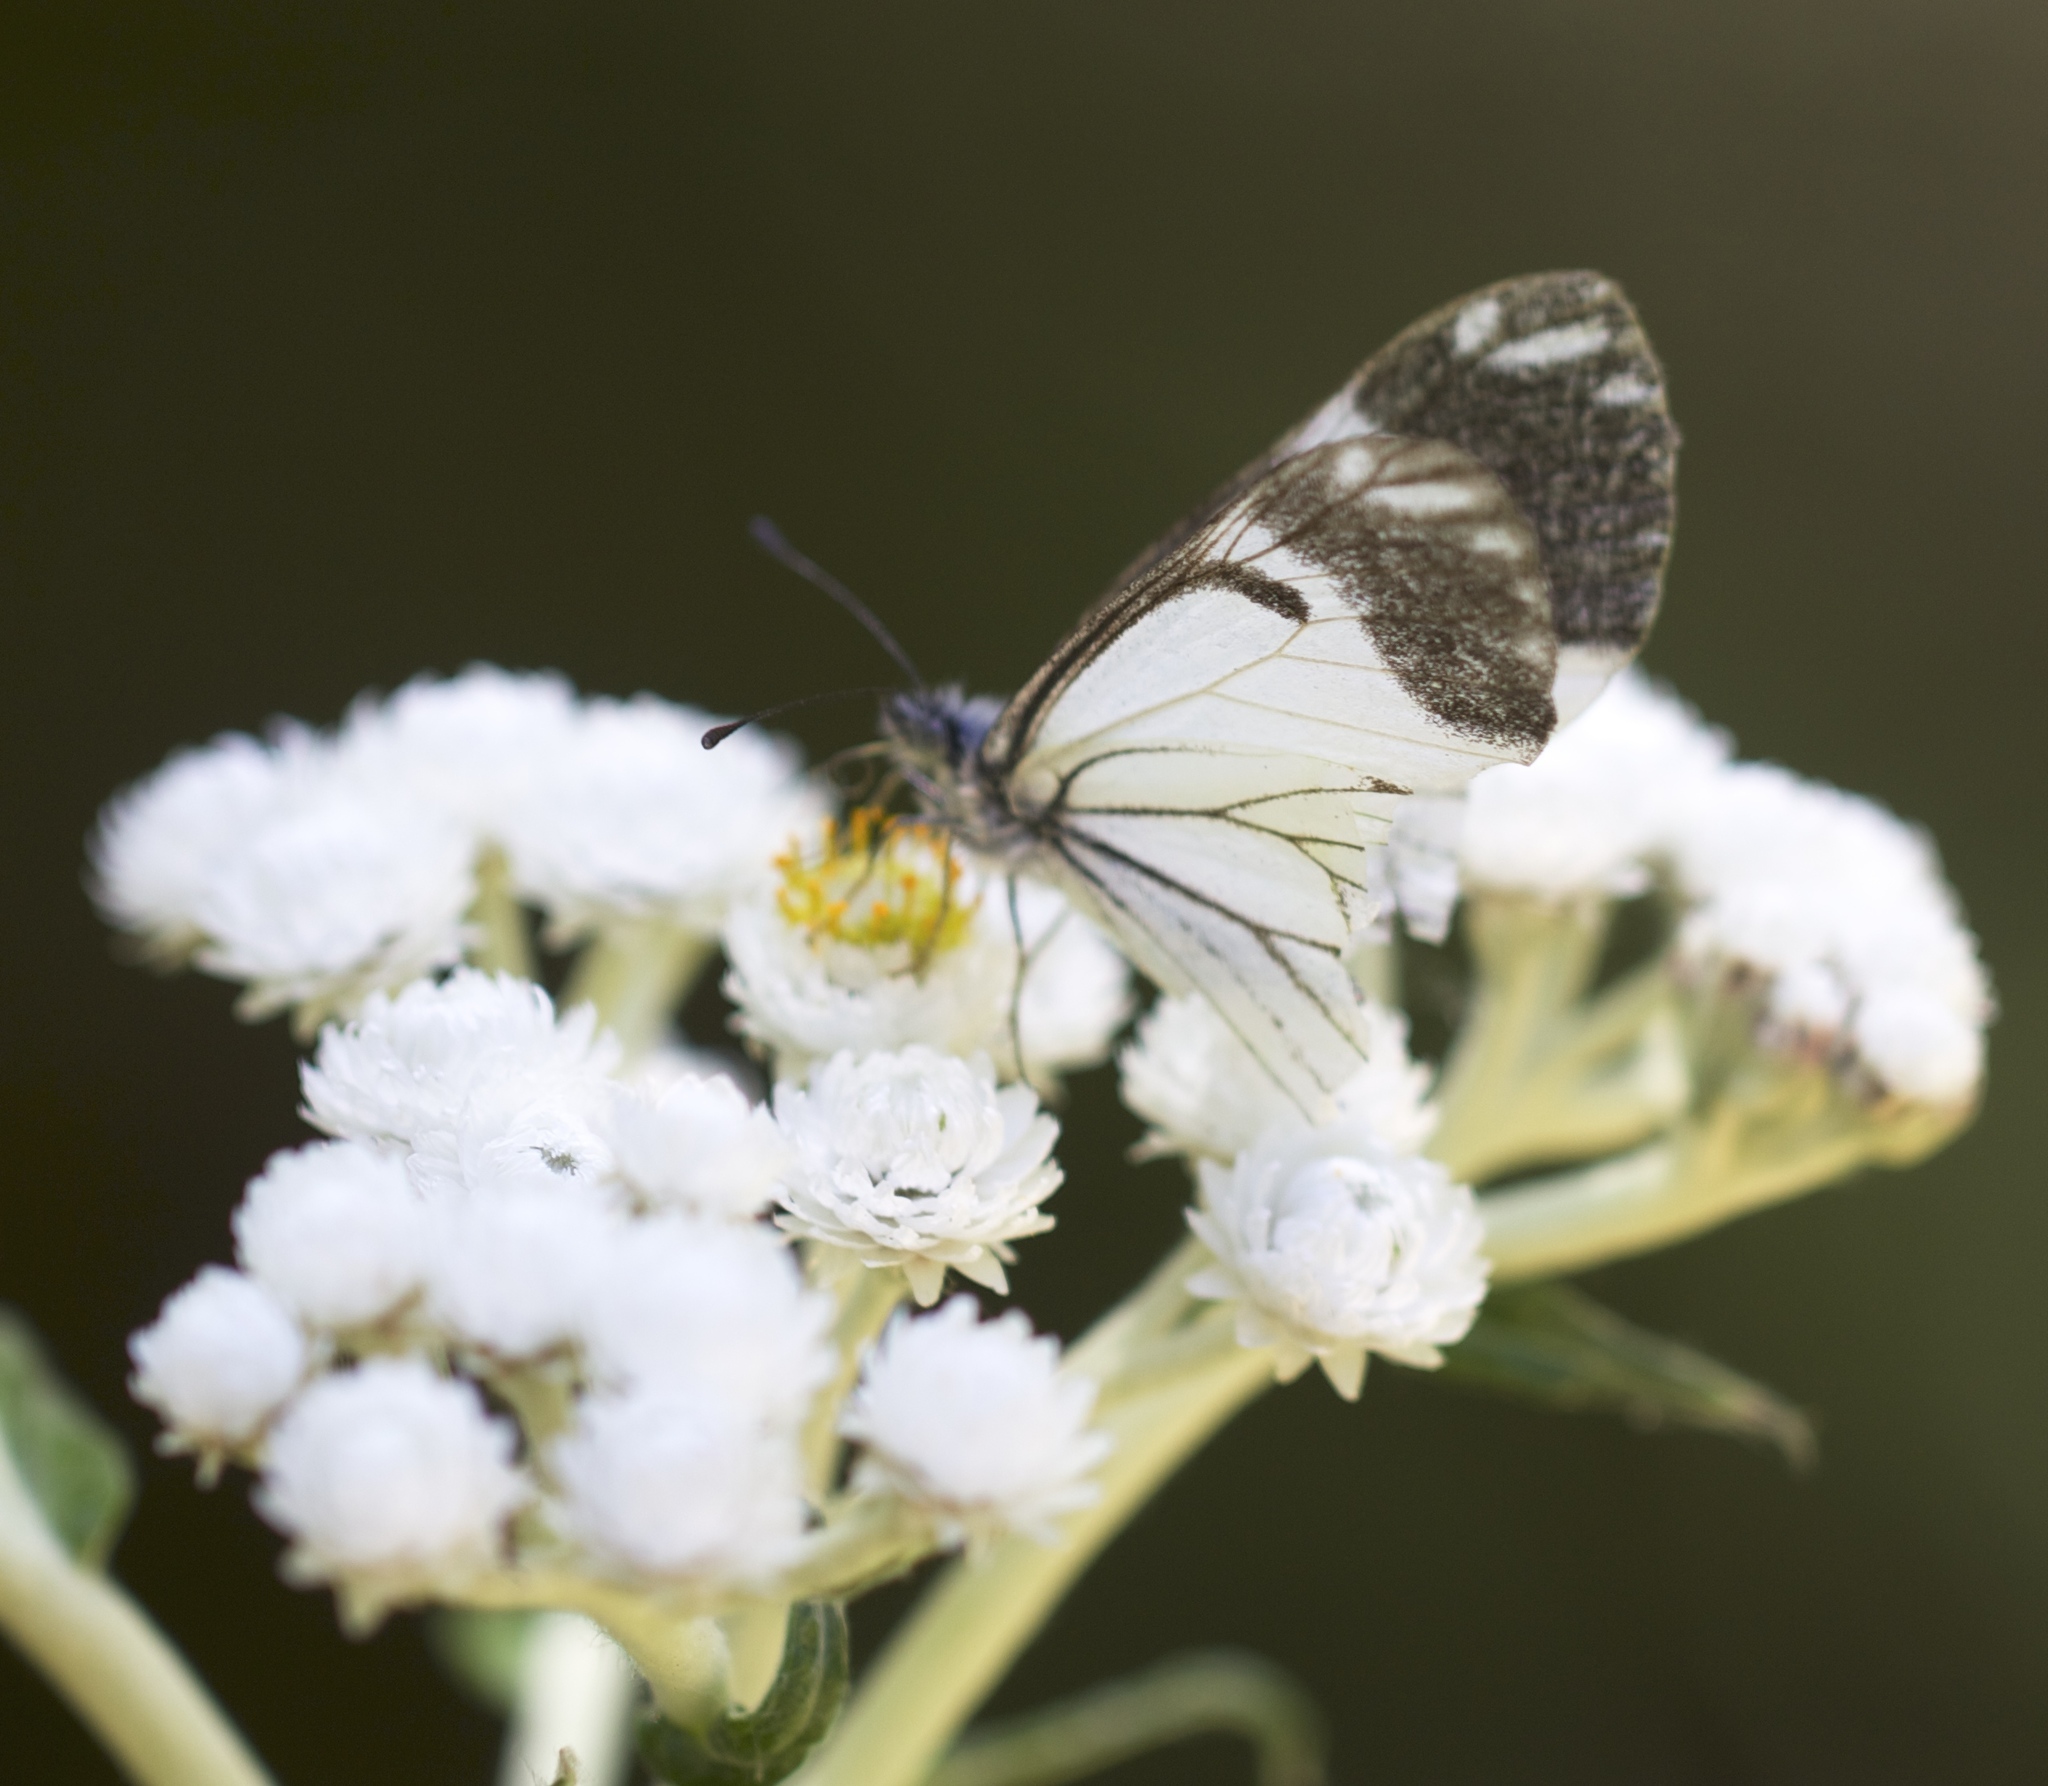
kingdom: Animalia
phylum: Arthropoda
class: Insecta
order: Lepidoptera
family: Pieridae
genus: Neophasia
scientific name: Neophasia menapia
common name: Pine white
